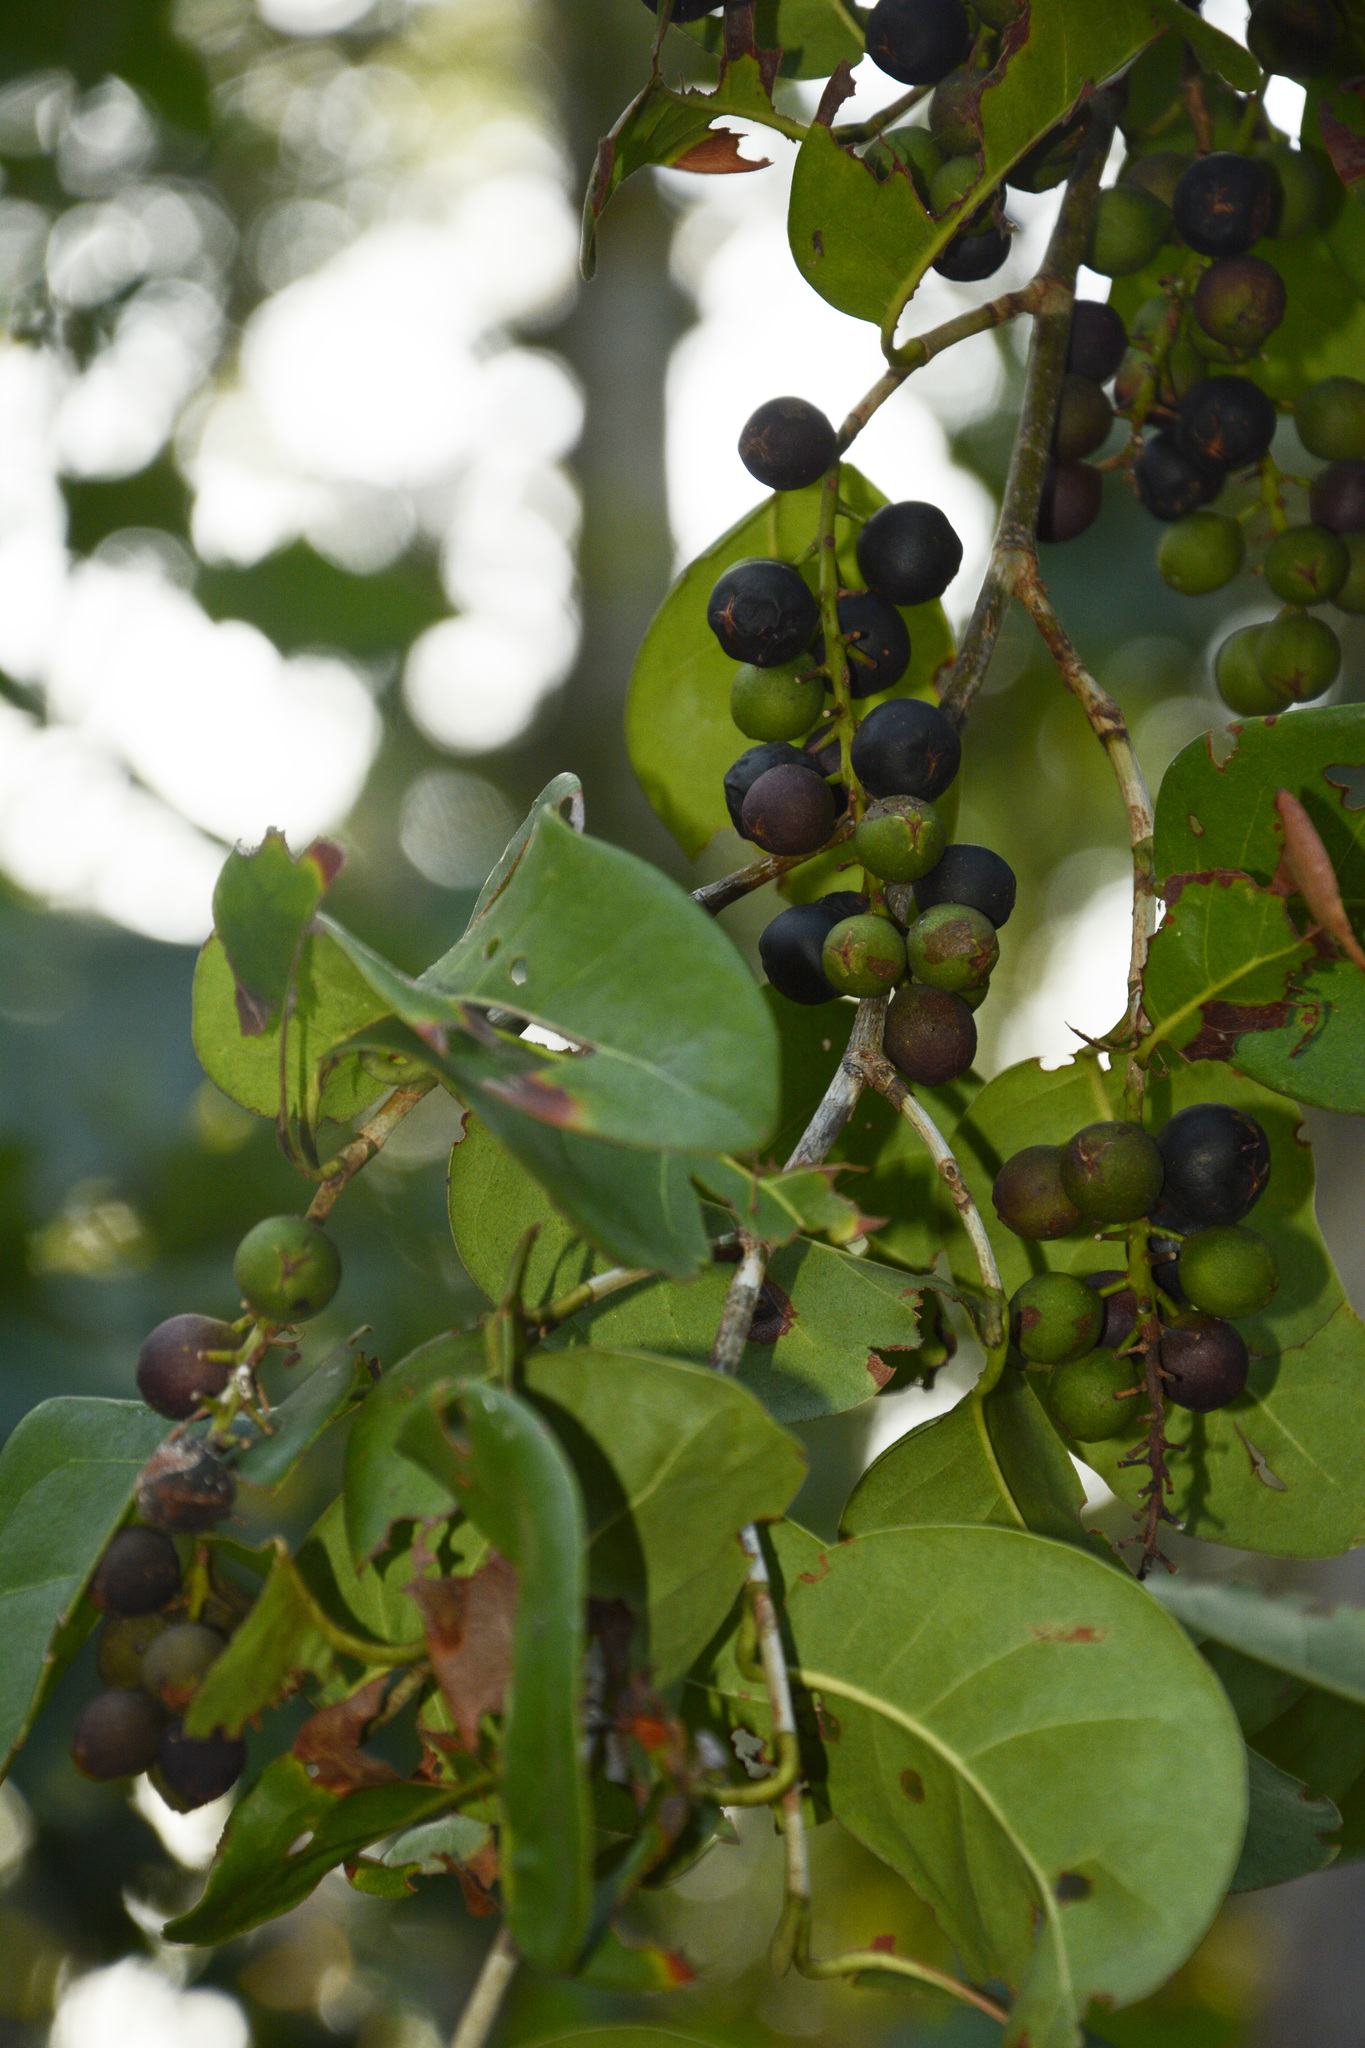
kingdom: Plantae
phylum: Tracheophyta
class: Magnoliopsida
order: Caryophyllales
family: Polygonaceae
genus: Coccoloba
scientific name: Coccoloba diversifolia
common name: Pigeon-plum
